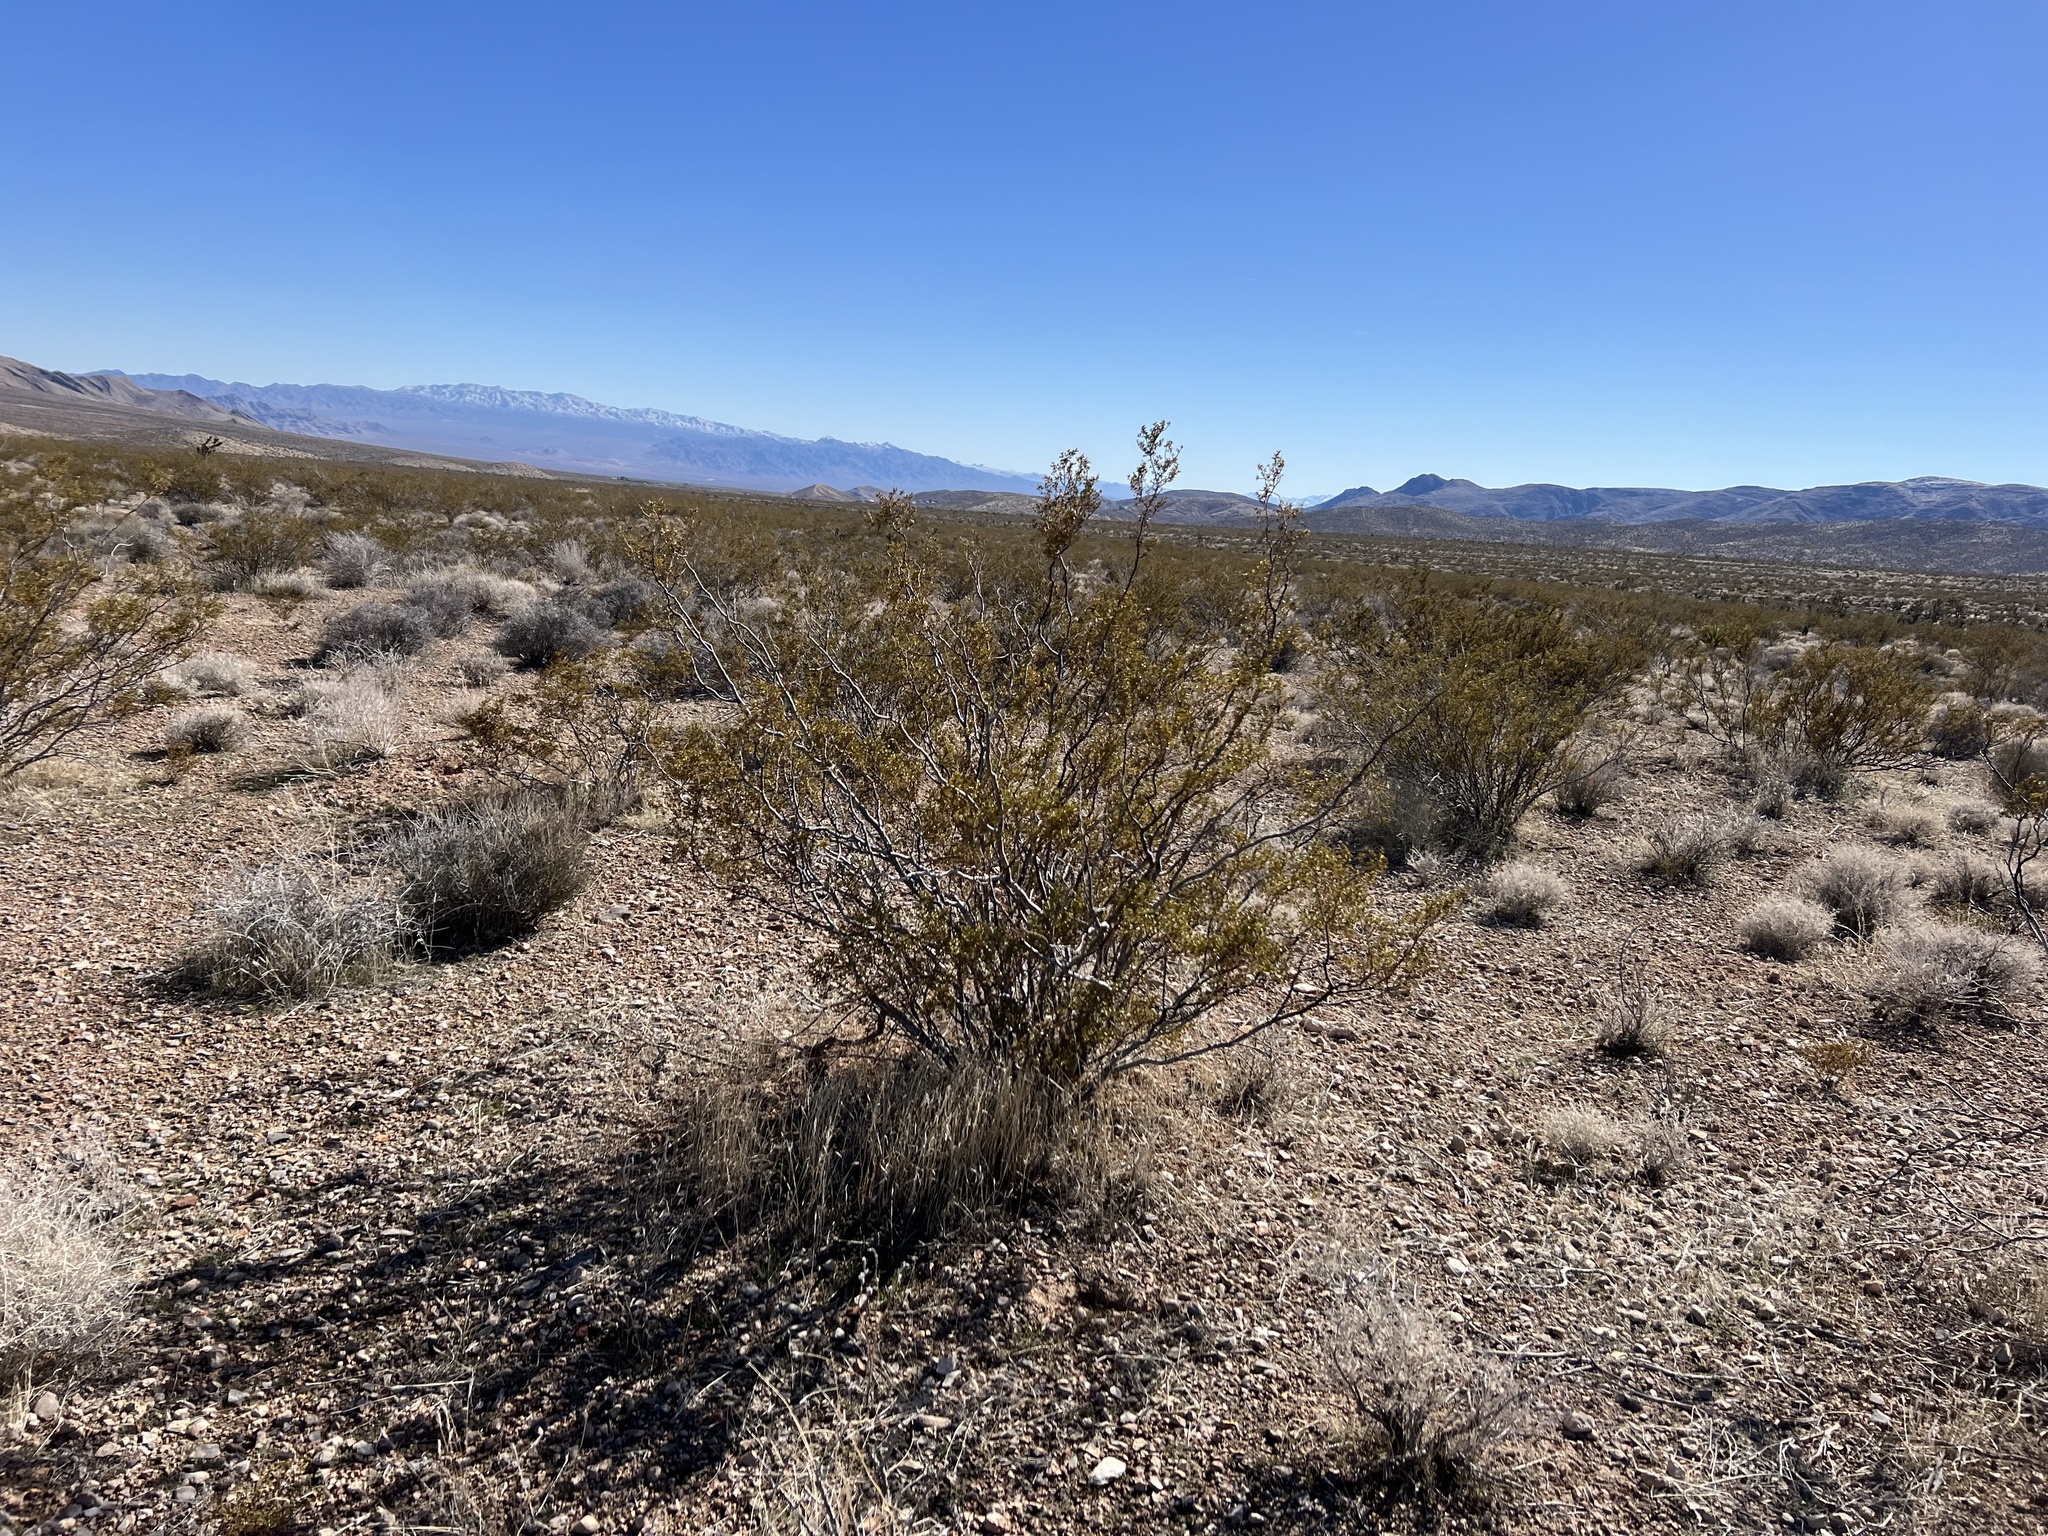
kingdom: Plantae
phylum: Tracheophyta
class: Magnoliopsida
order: Zygophyllales
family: Zygophyllaceae
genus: Larrea
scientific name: Larrea tridentata
